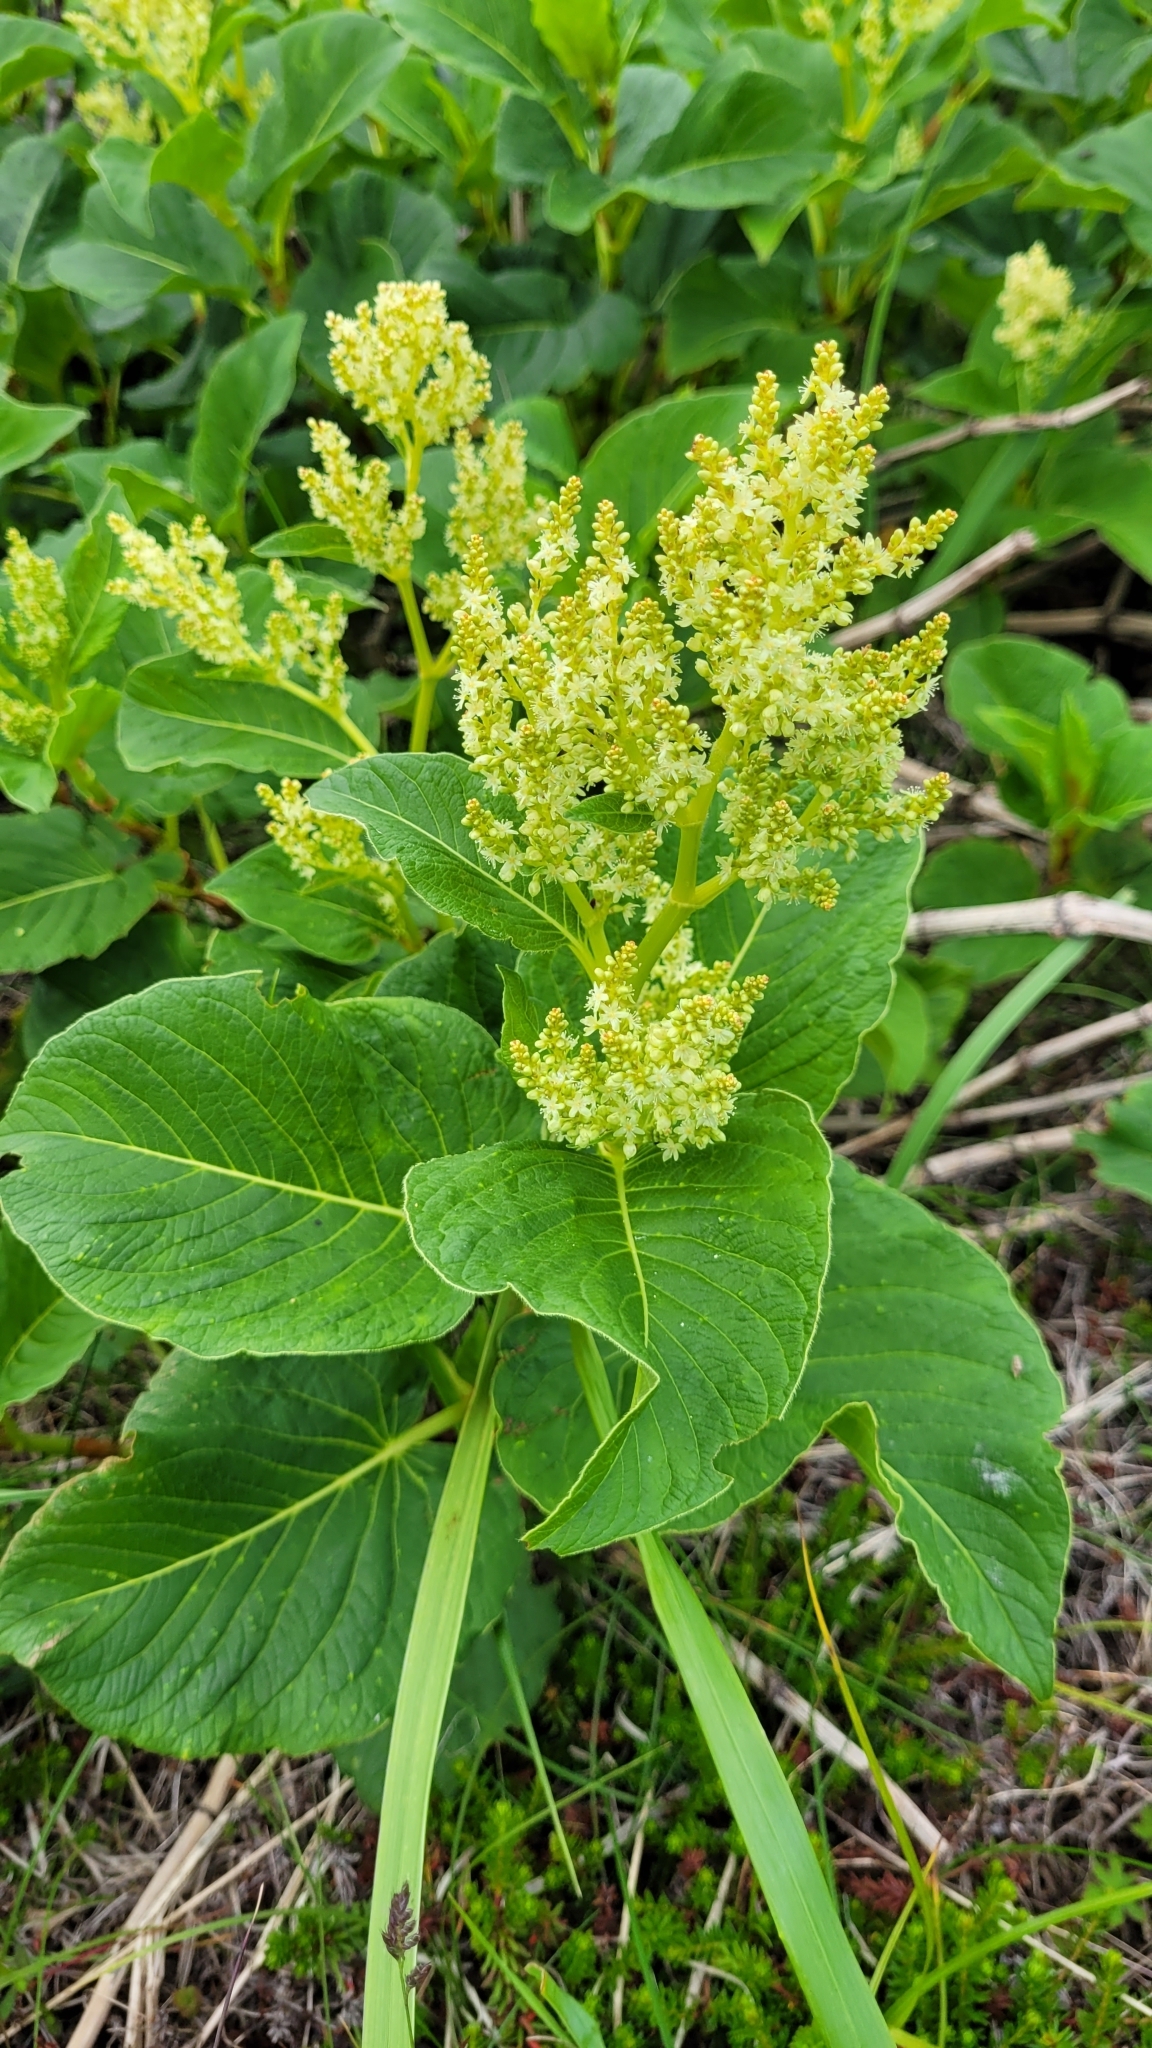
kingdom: Plantae
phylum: Tracheophyta
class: Magnoliopsida
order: Caryophyllales
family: Polygonaceae
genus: Koenigia
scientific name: Koenigia weyrichii
